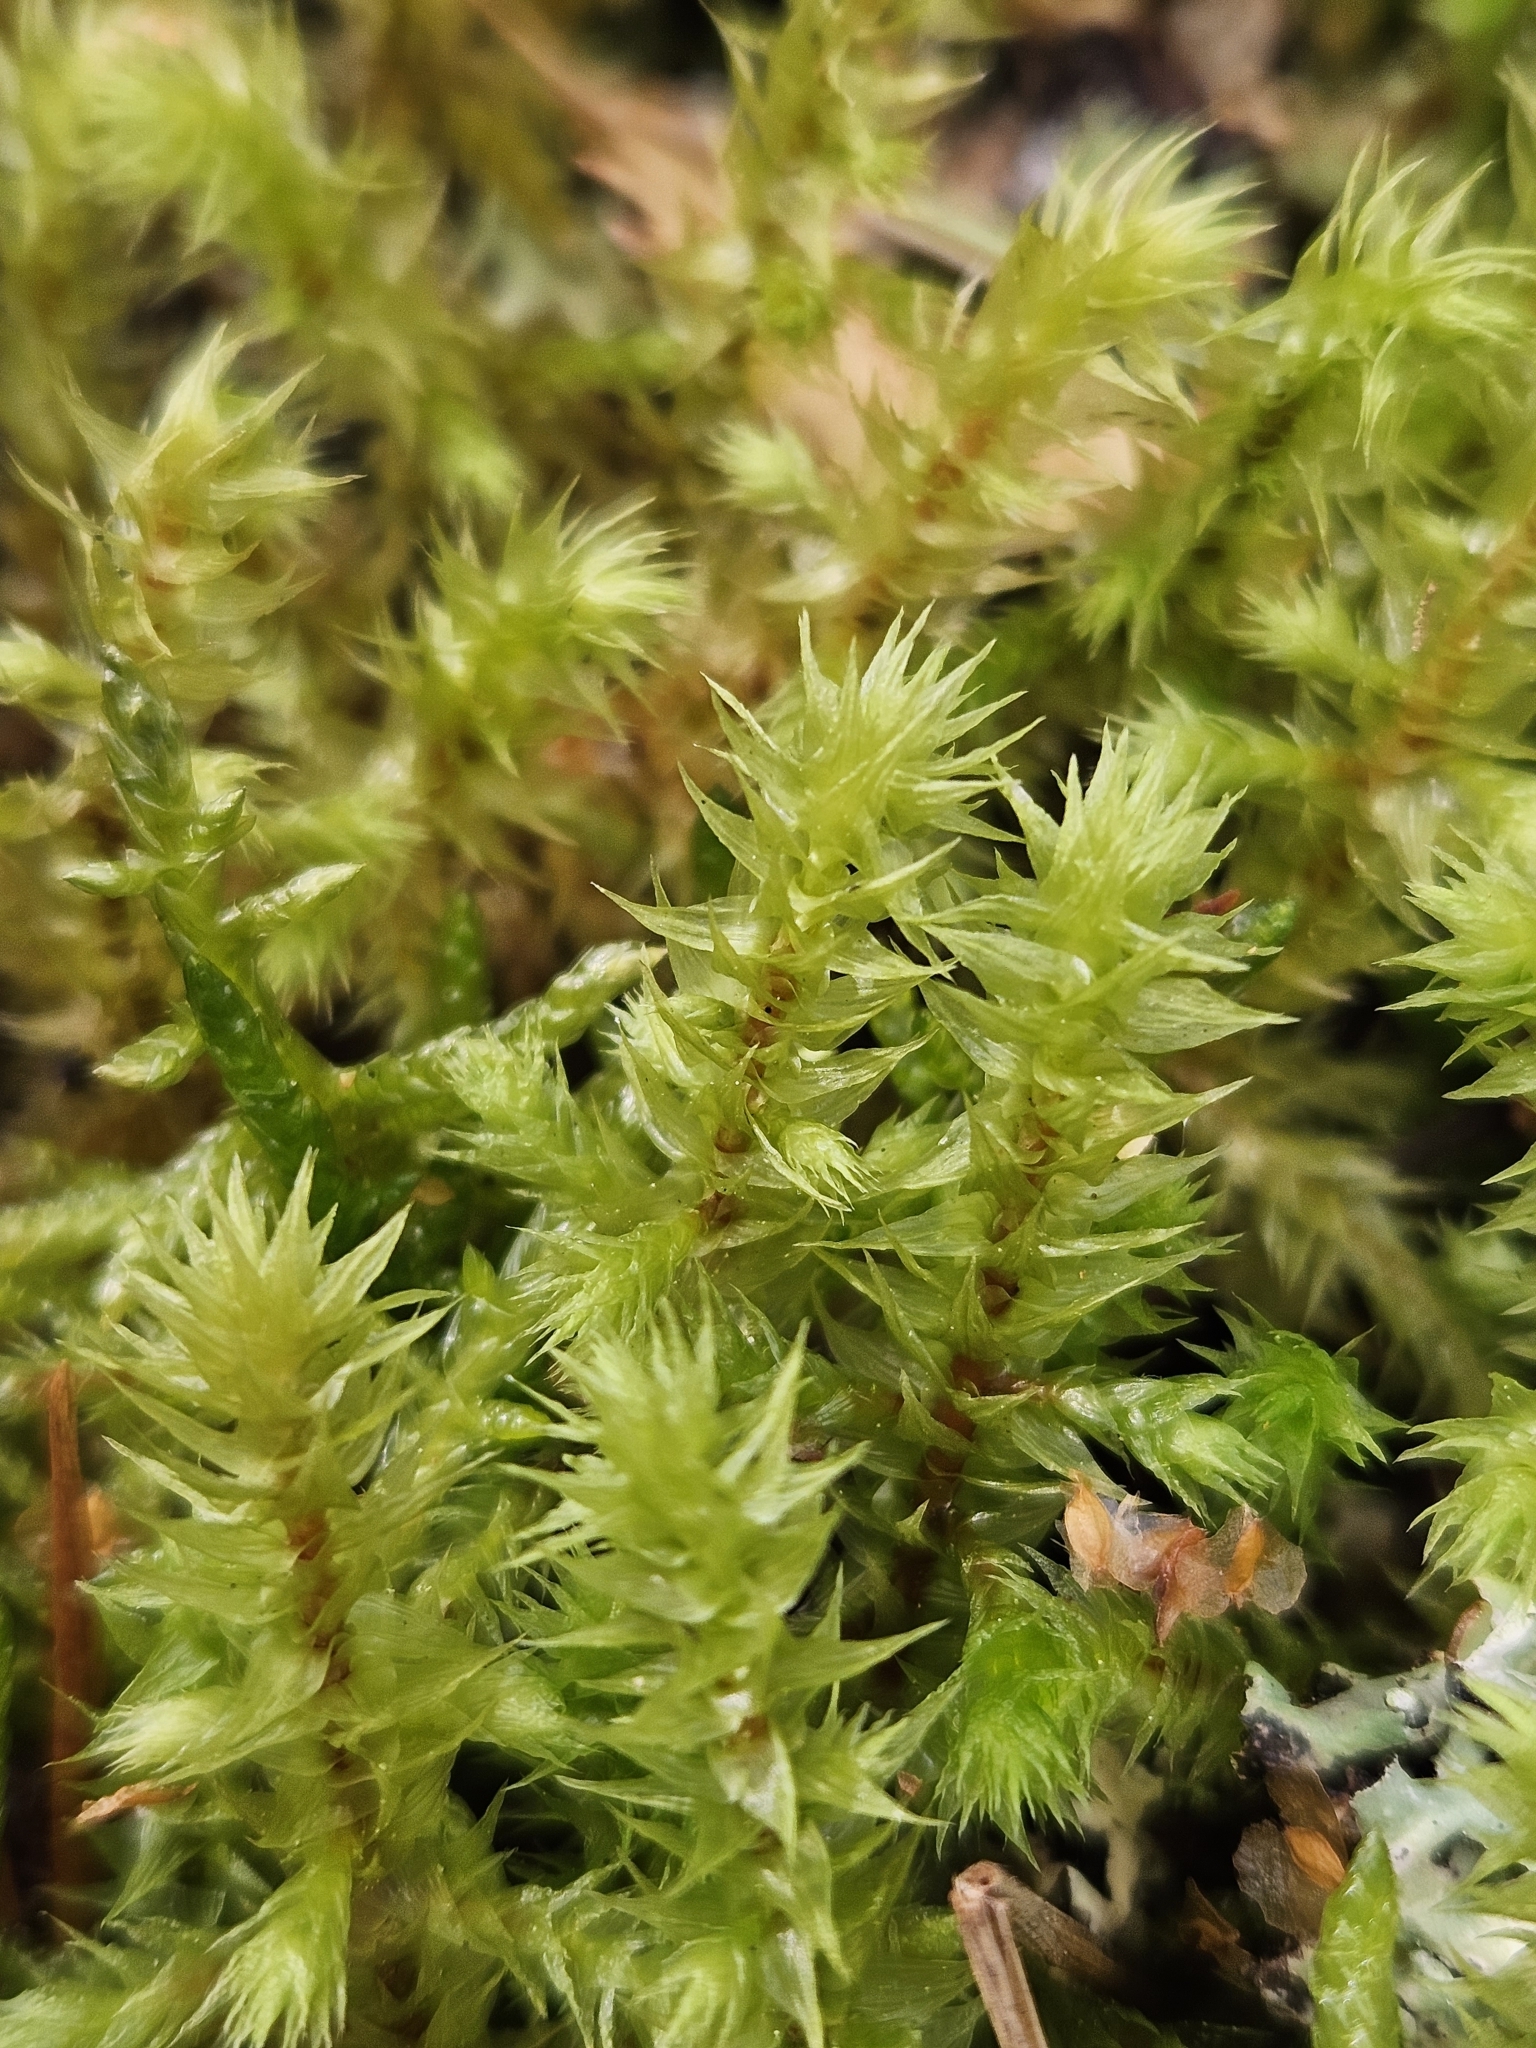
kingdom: Plantae
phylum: Bryophyta
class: Bryopsida
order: Hypnales
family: Hylocomiaceae
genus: Hylocomiadelphus
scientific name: Hylocomiadelphus triquetrus
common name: Rough goose neck moss
